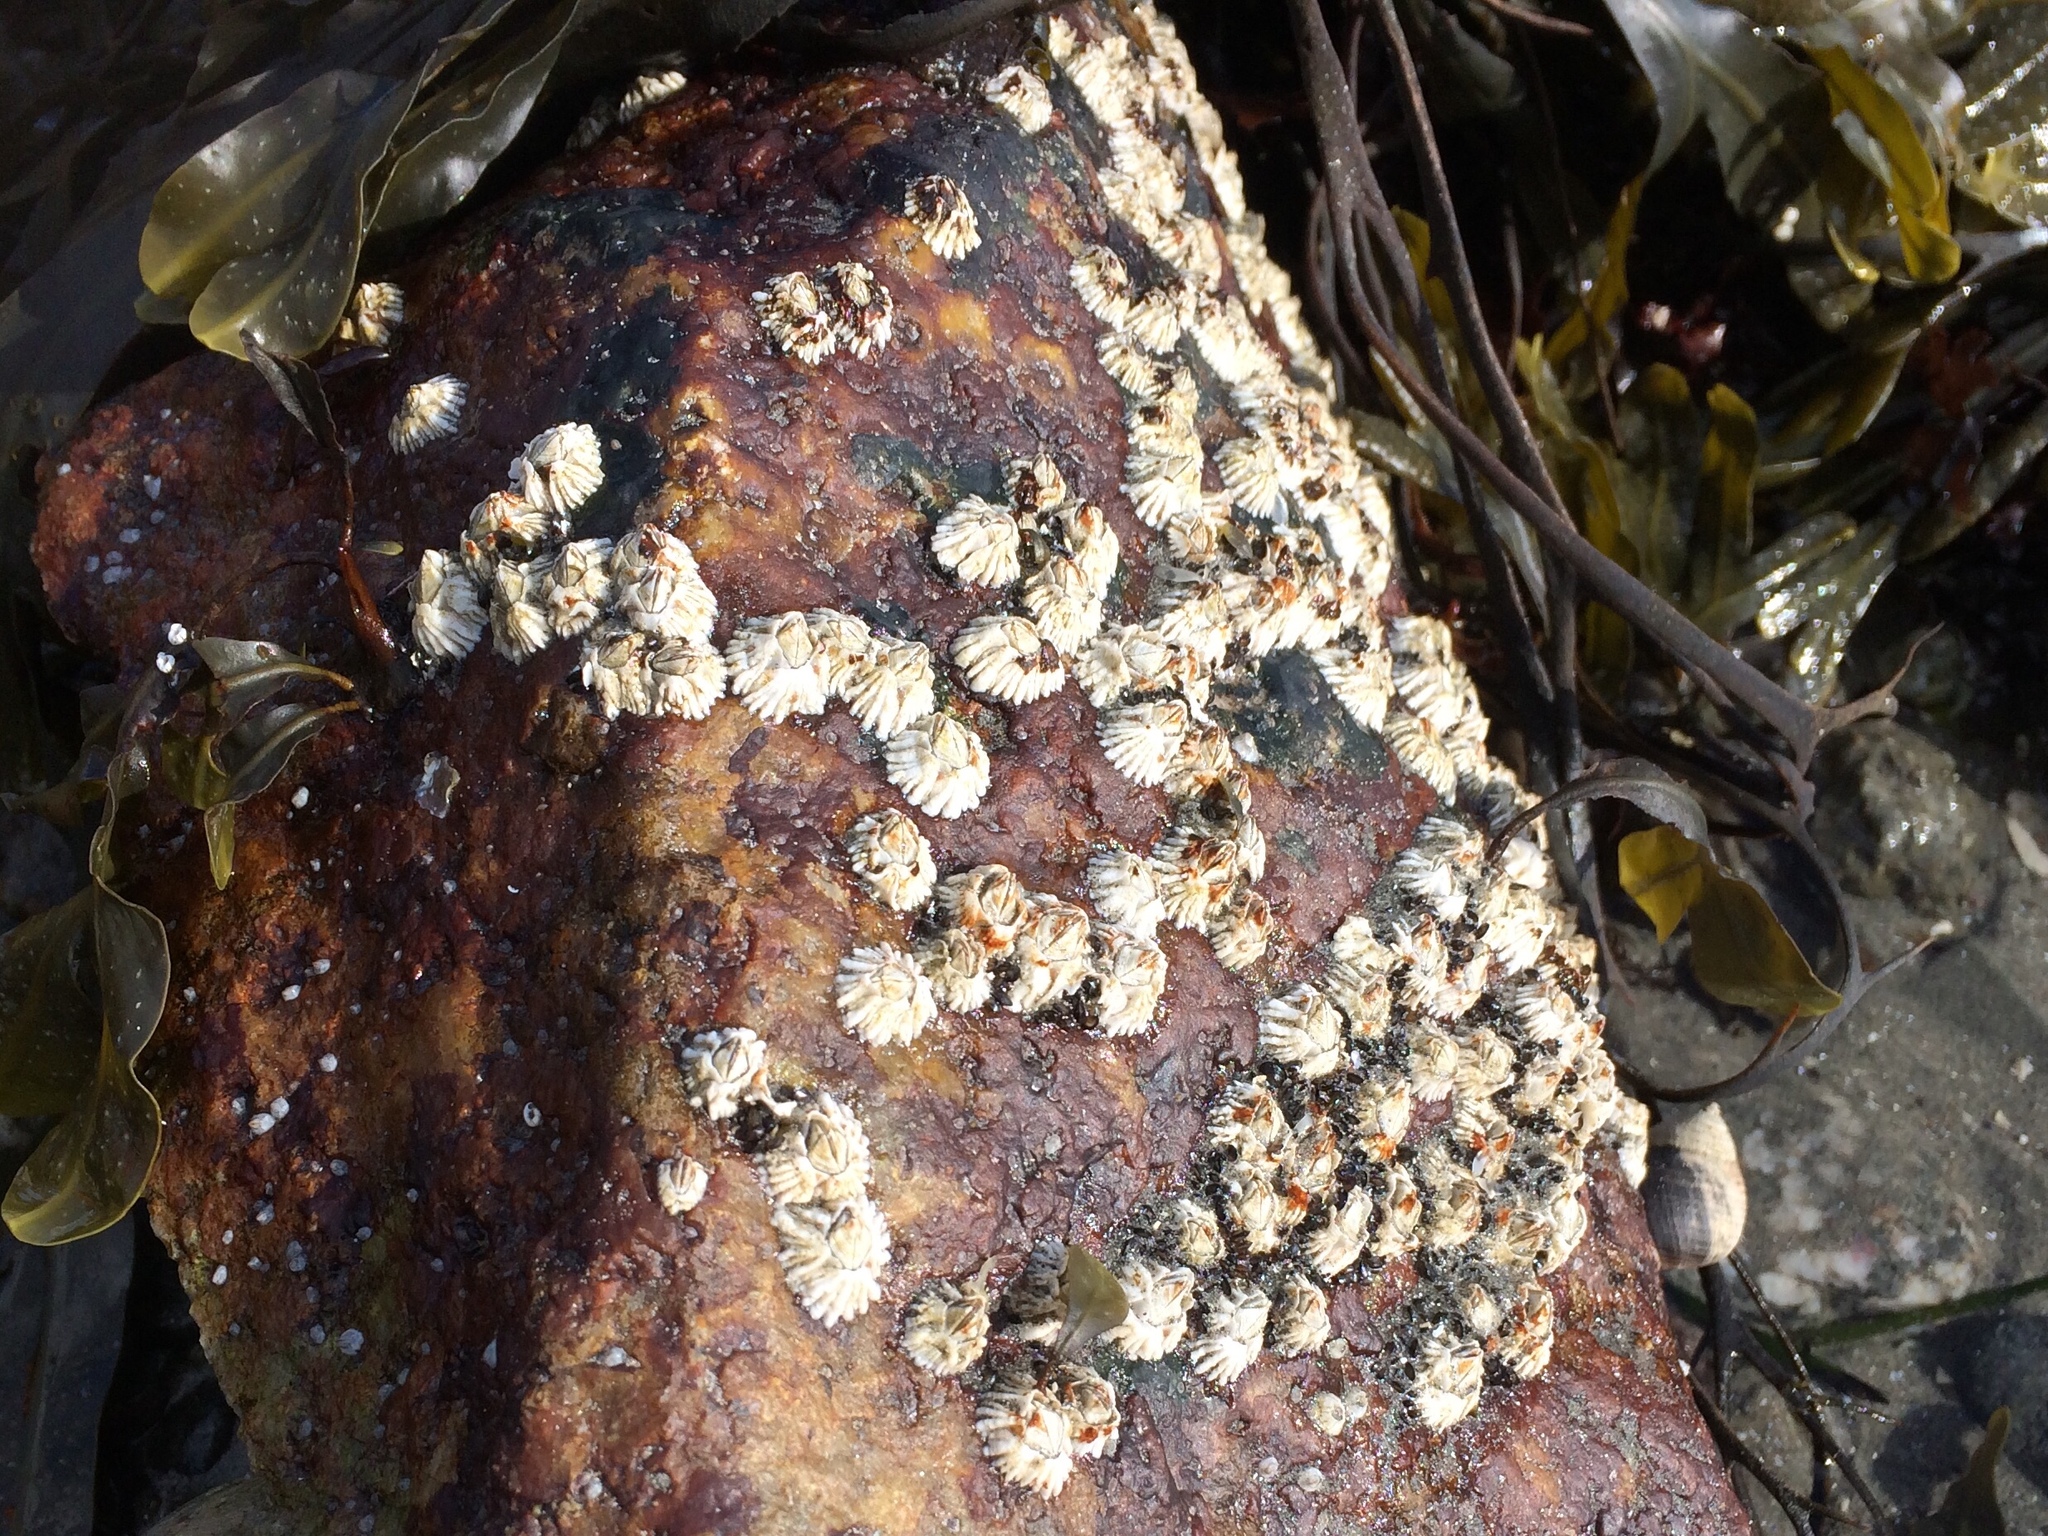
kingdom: Animalia
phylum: Arthropoda
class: Maxillopoda
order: Sessilia
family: Archaeobalanidae
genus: Semibalanus
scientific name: Semibalanus balanoides
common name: Acorn barnacle
